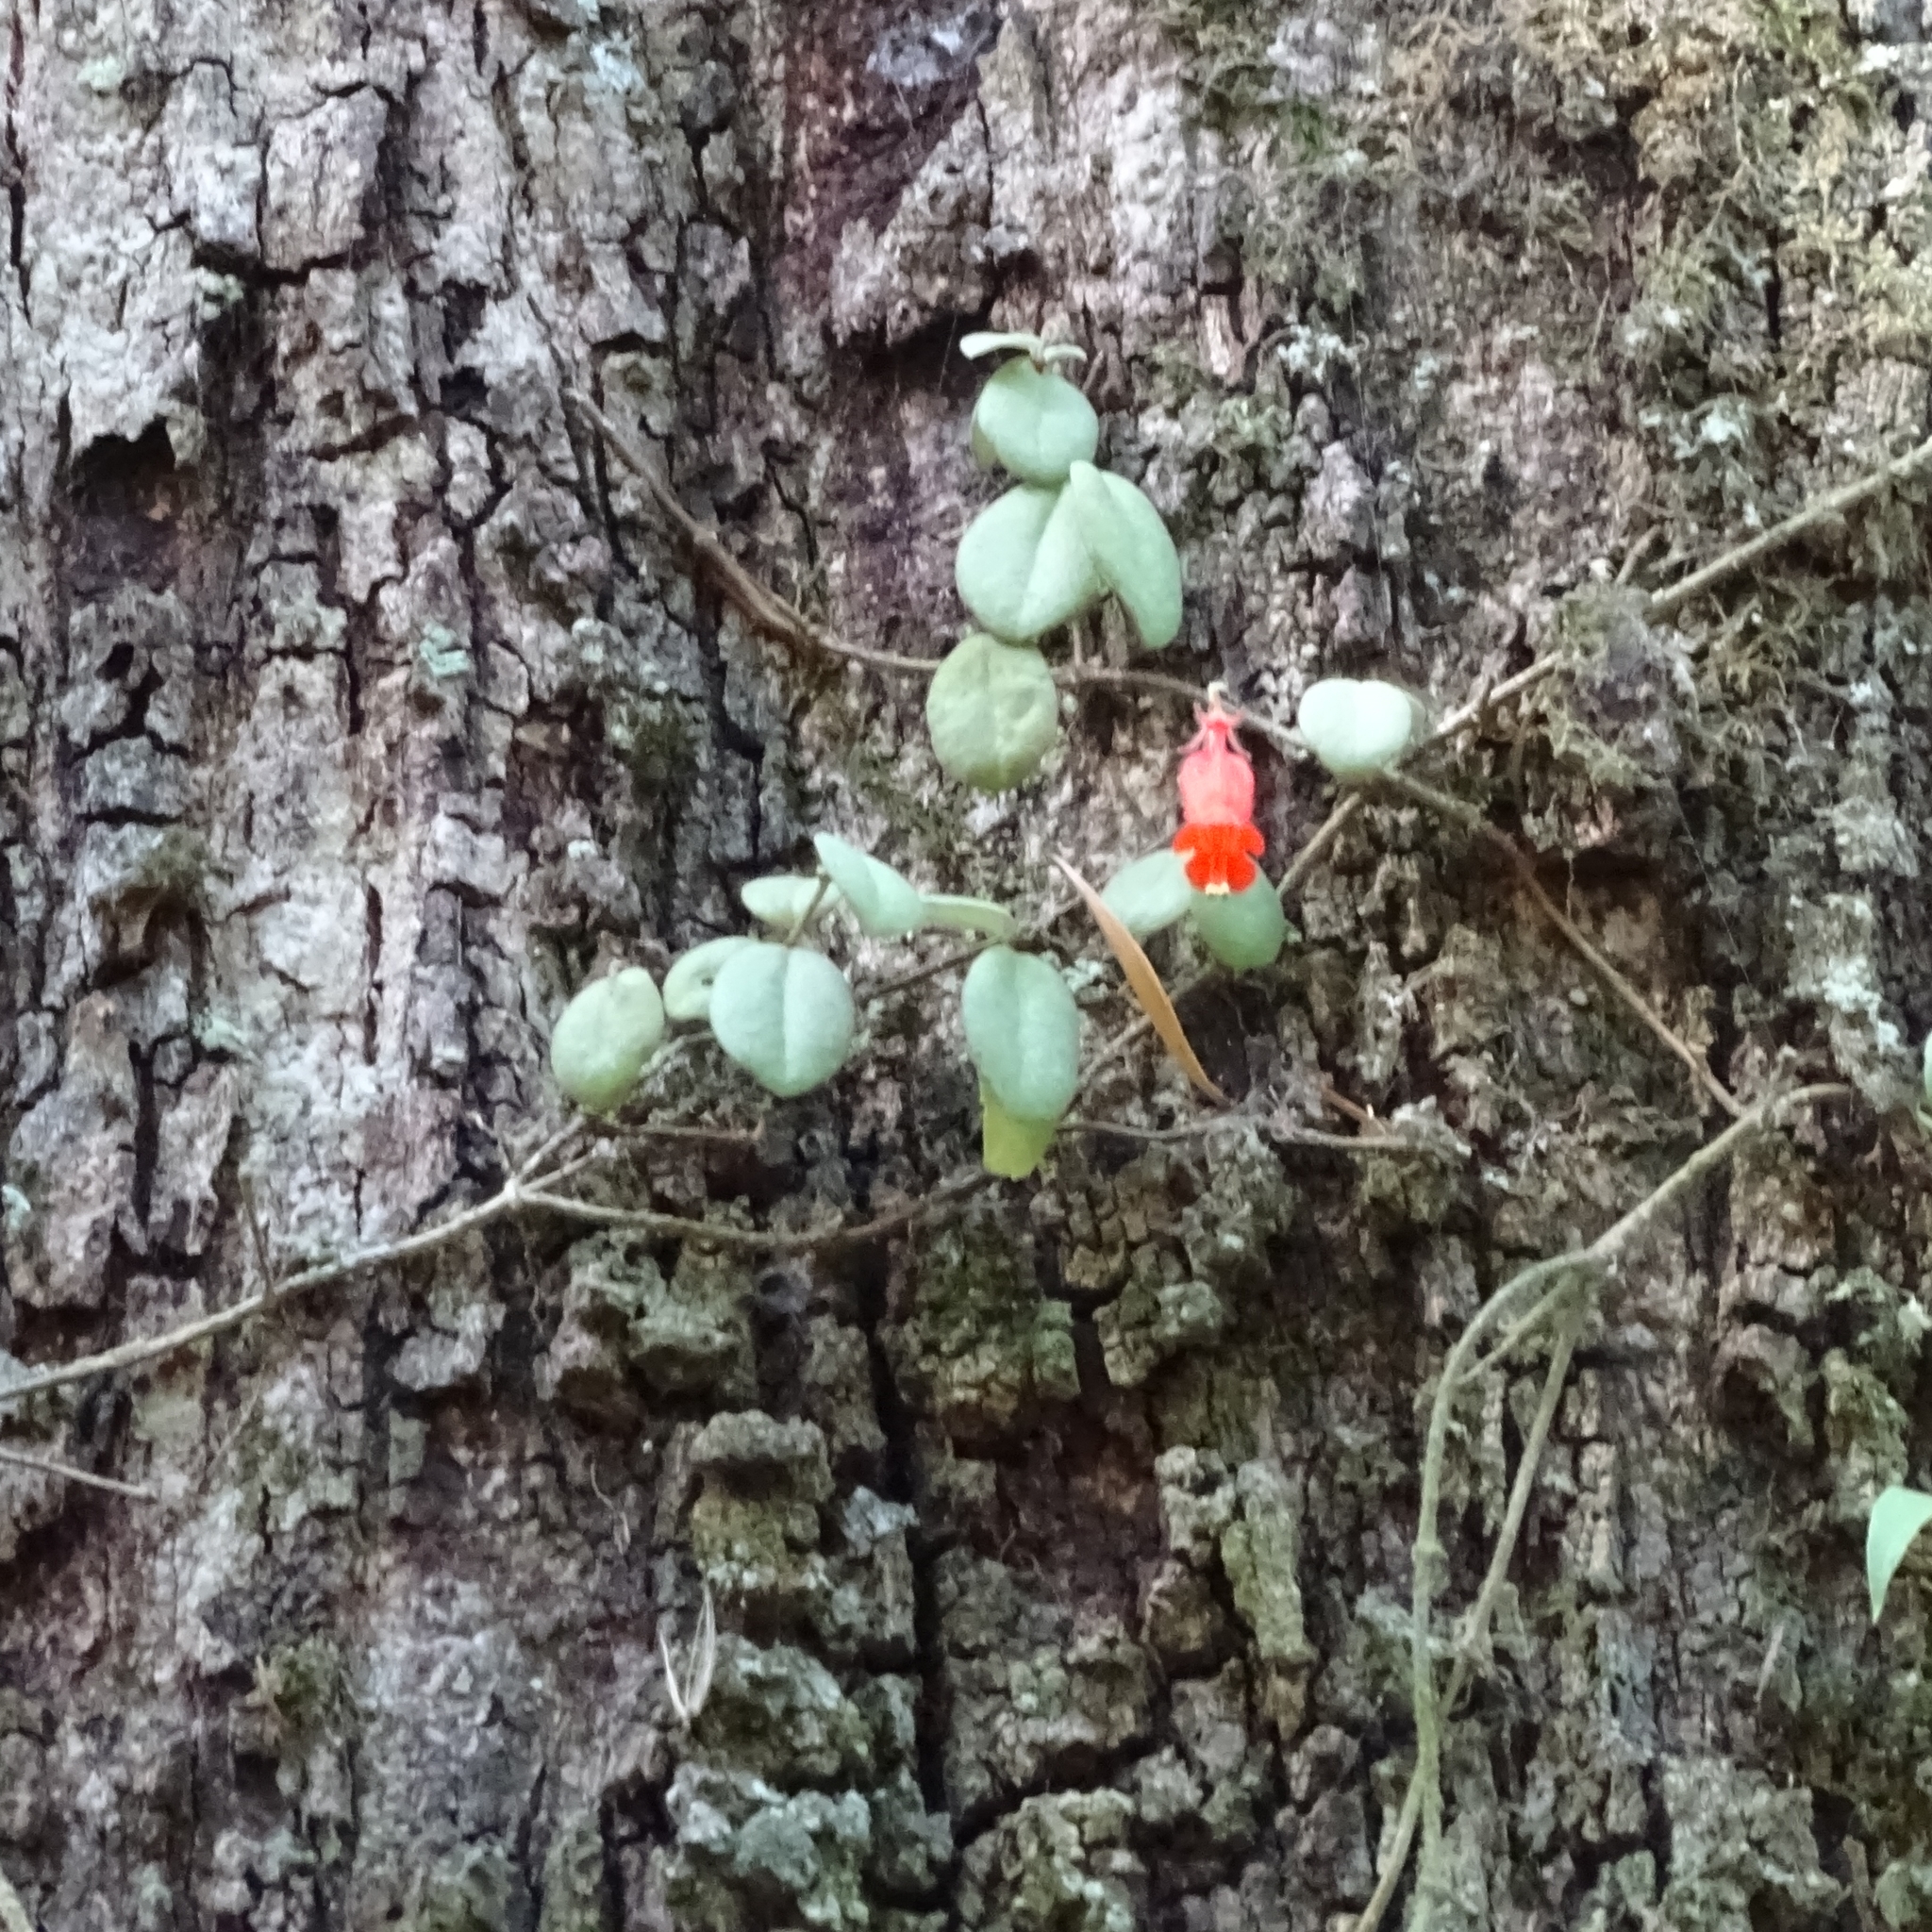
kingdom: Plantae
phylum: Tracheophyta
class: Magnoliopsida
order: Lamiales
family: Gesneriaceae
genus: Sarmienta
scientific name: Sarmienta scandens
